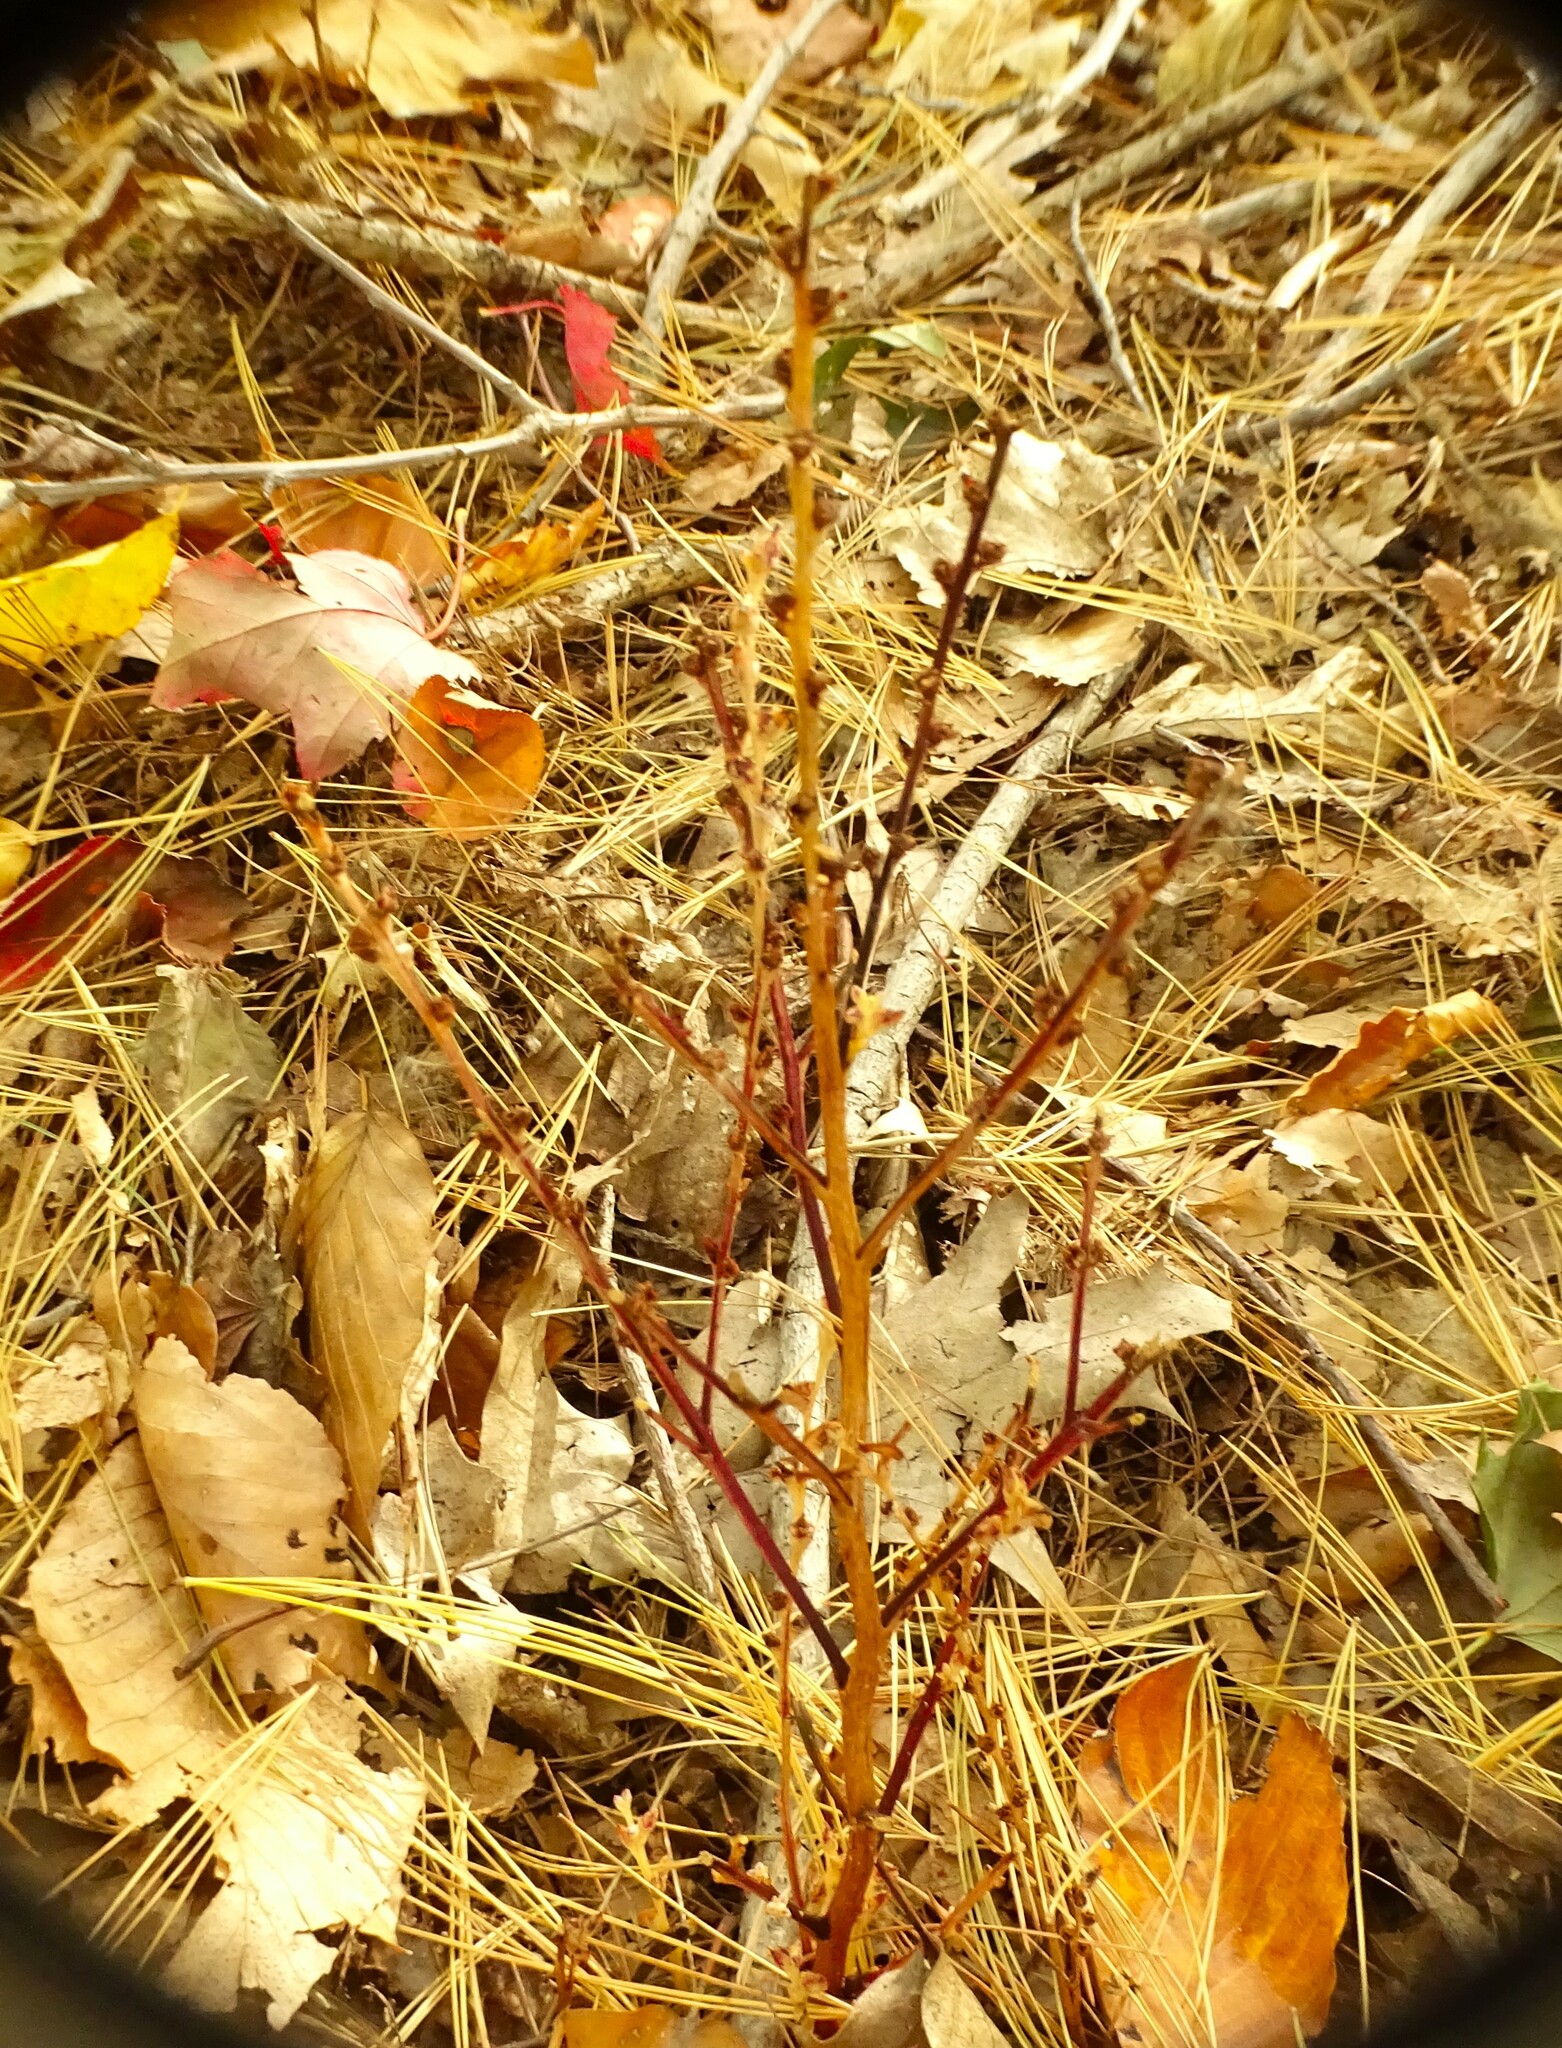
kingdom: Plantae
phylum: Tracheophyta
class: Magnoliopsida
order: Lamiales
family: Orobanchaceae
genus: Epifagus
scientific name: Epifagus virginiana
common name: Beechdrops
